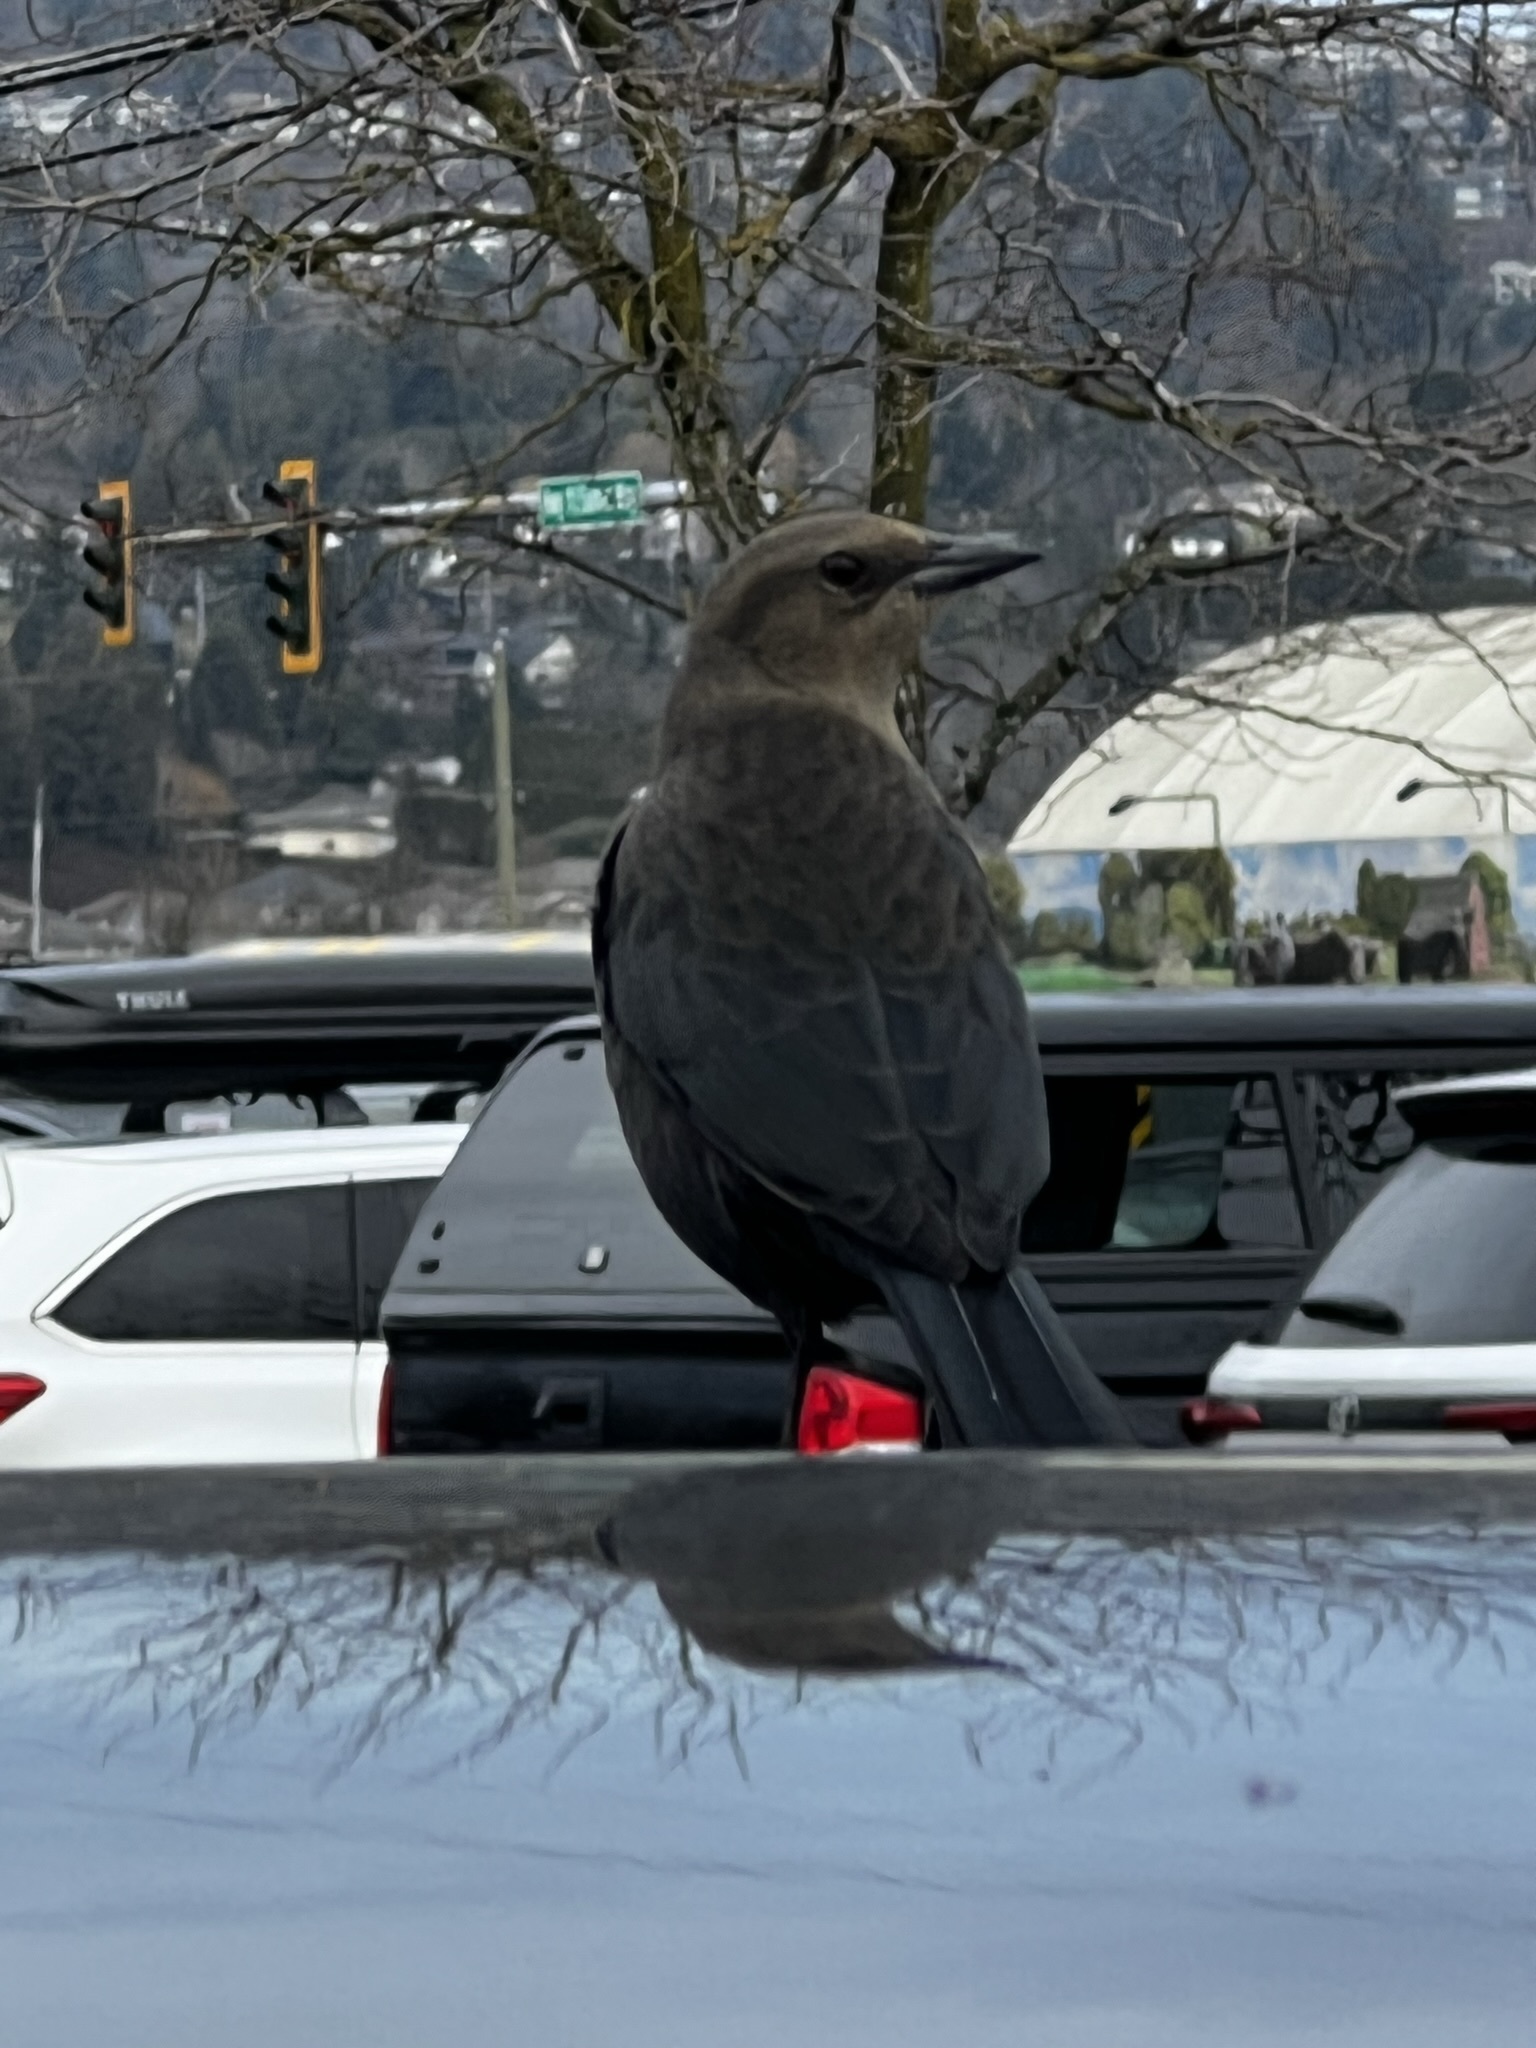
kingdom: Animalia
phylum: Chordata
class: Aves
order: Passeriformes
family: Icteridae
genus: Euphagus
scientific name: Euphagus cyanocephalus
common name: Brewer's blackbird
